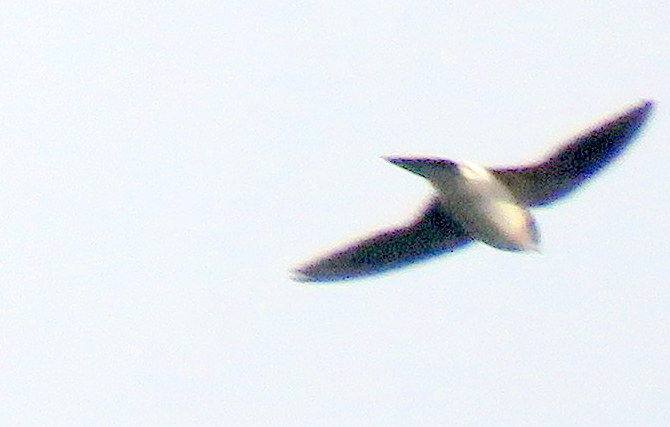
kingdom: Animalia
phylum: Chordata
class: Aves
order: Passeriformes
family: Hirundinidae
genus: Tachycineta
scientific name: Tachycineta leucorrhoa
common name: White-rumped swallow
